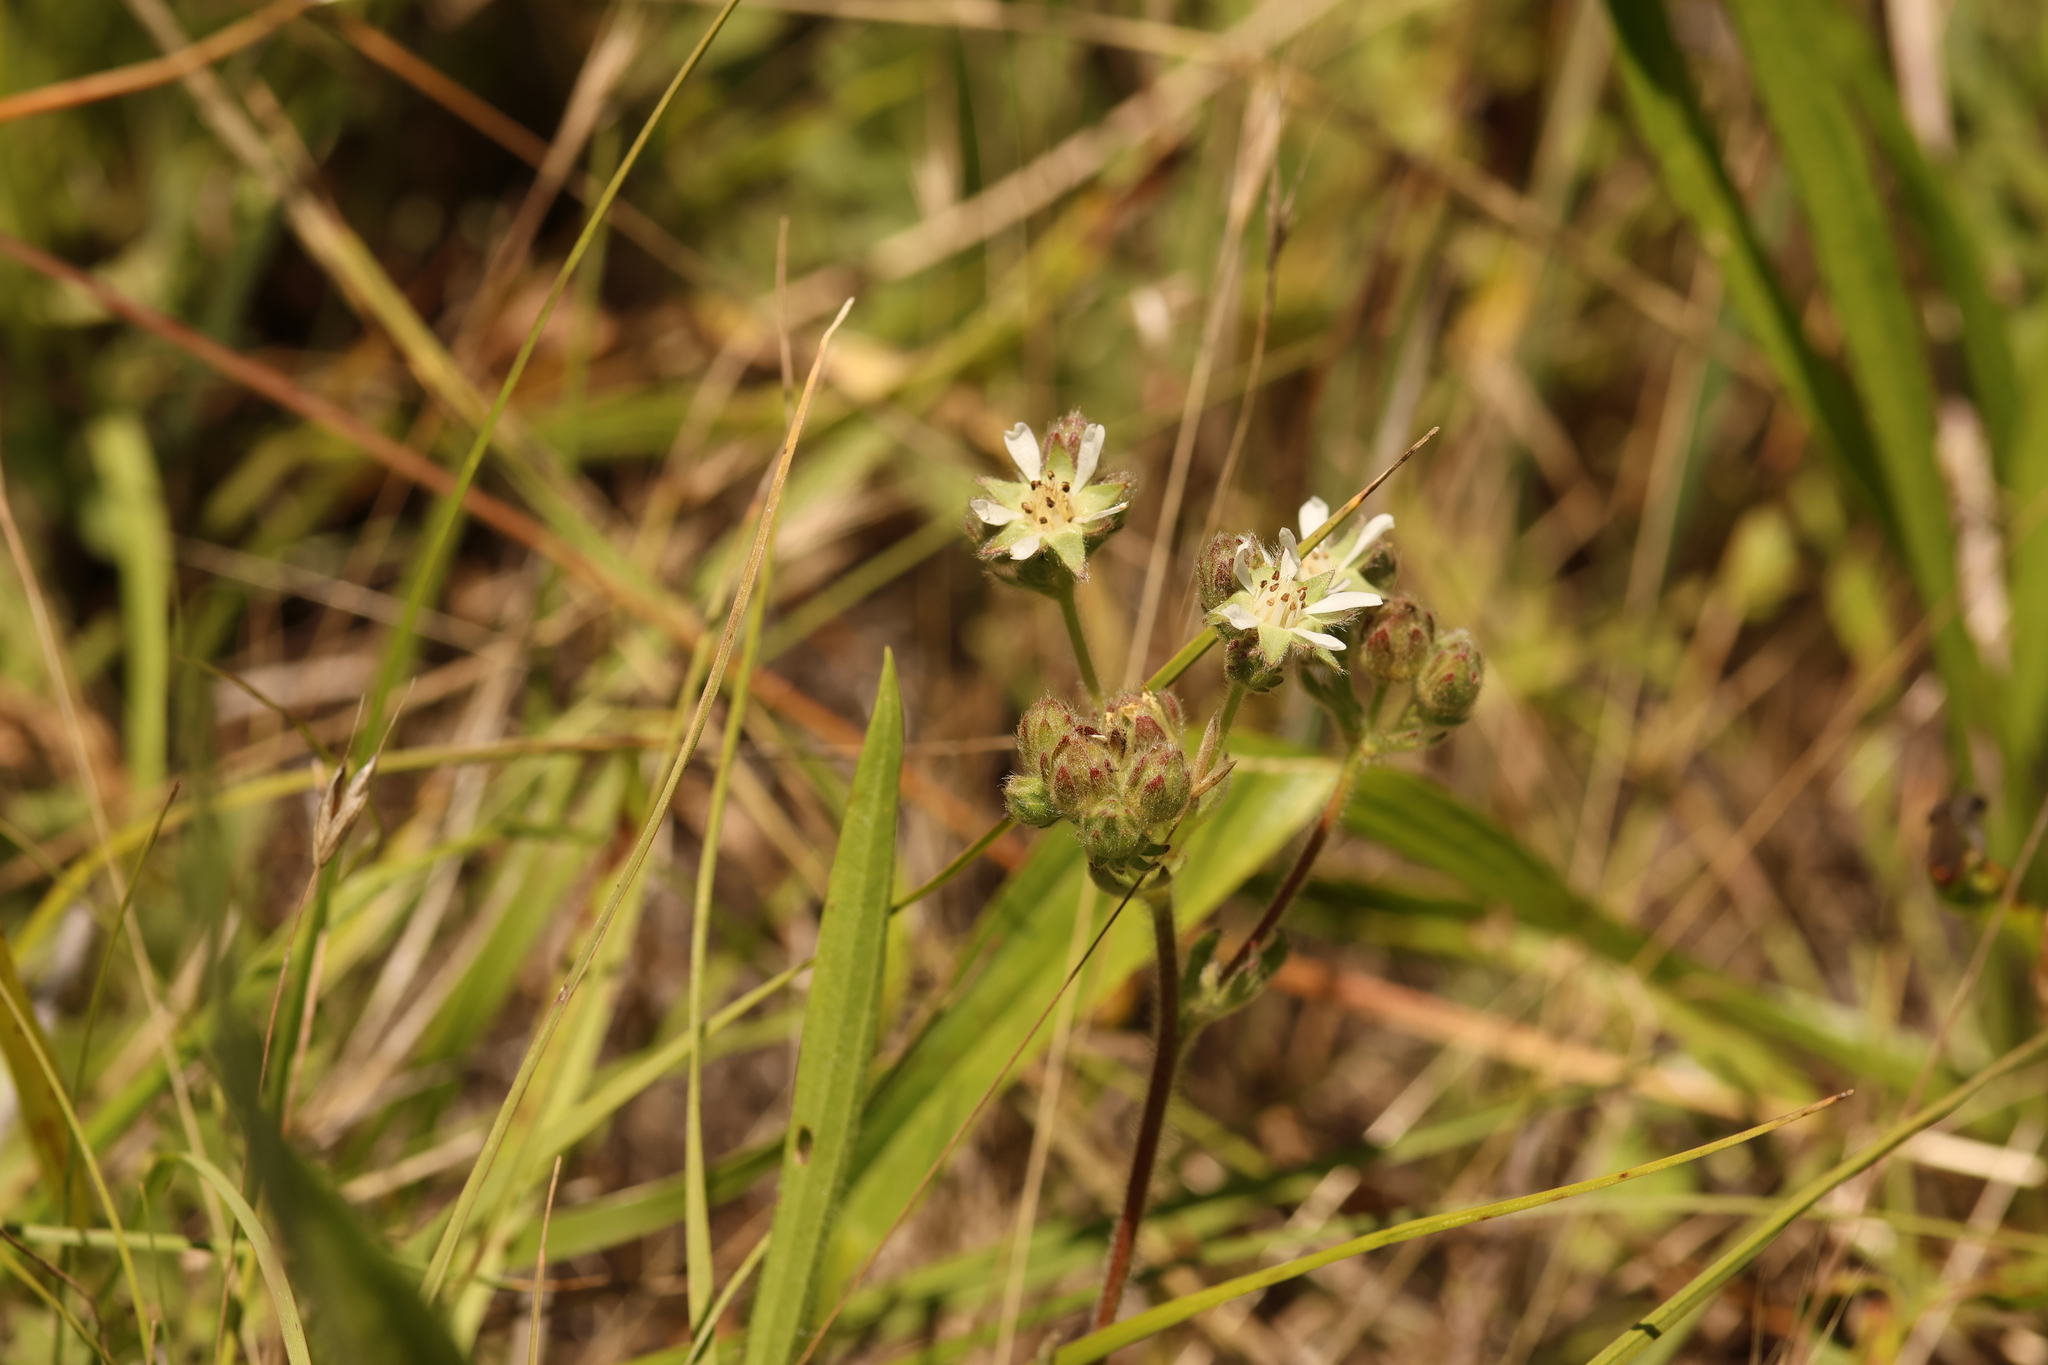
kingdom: Plantae
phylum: Tracheophyta
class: Magnoliopsida
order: Rosales
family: Rosaceae
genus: Potentilla
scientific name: Potentilla marinensis
